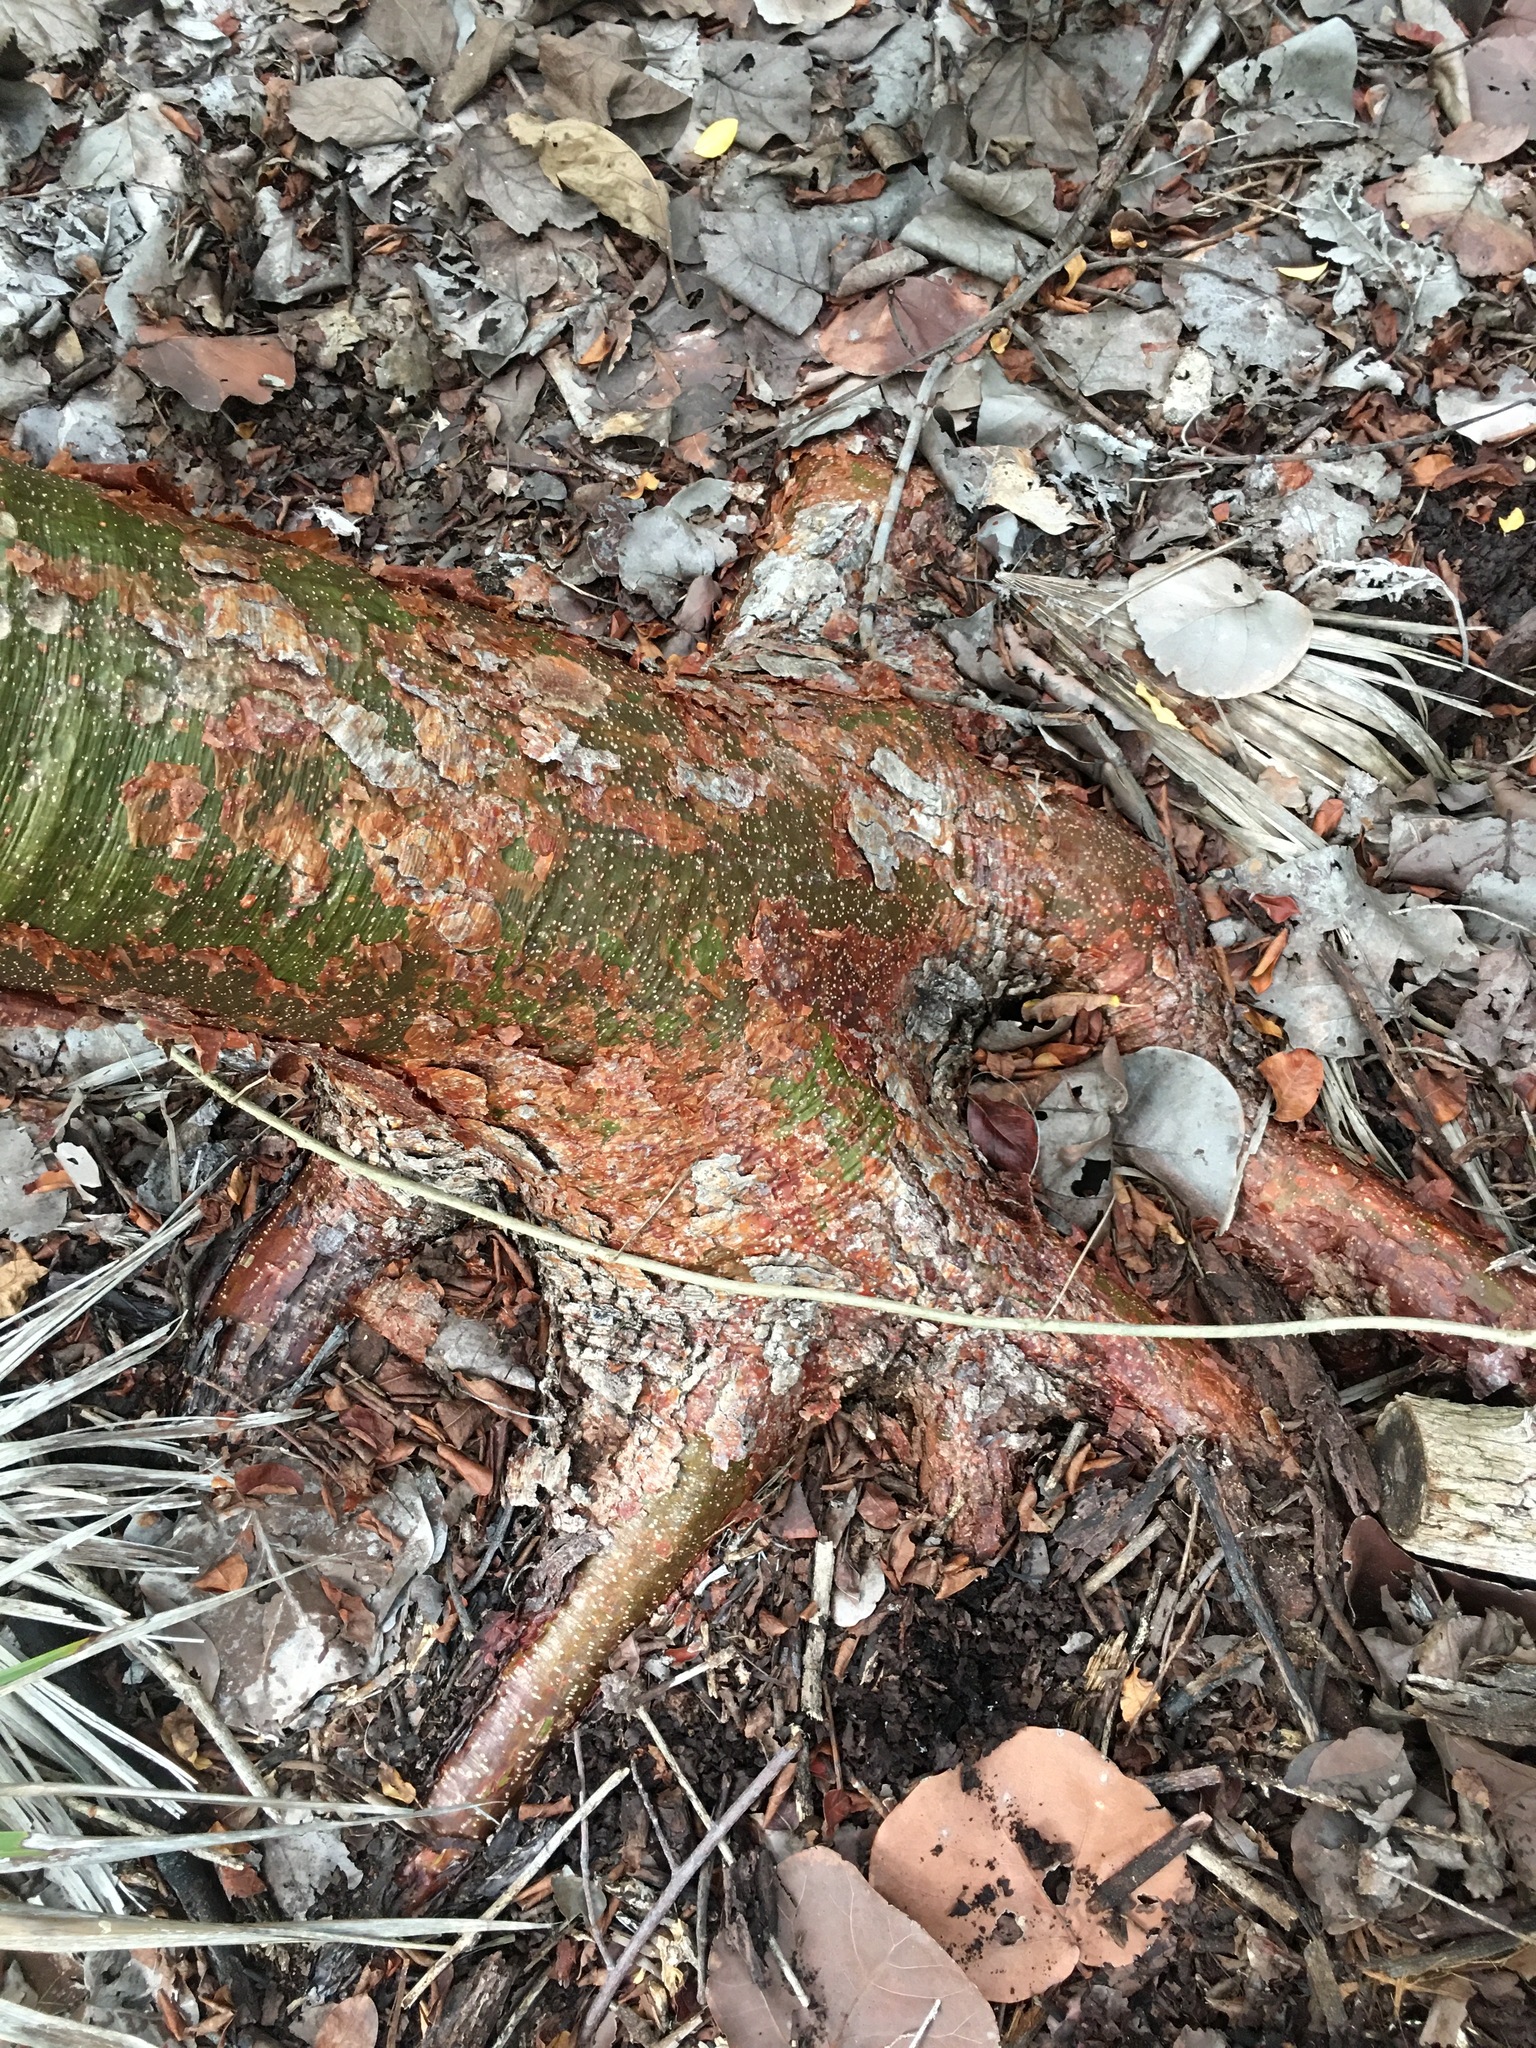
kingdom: Plantae
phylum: Tracheophyta
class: Magnoliopsida
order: Sapindales
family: Burseraceae
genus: Bursera
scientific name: Bursera simaruba
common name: Turpentine tree
